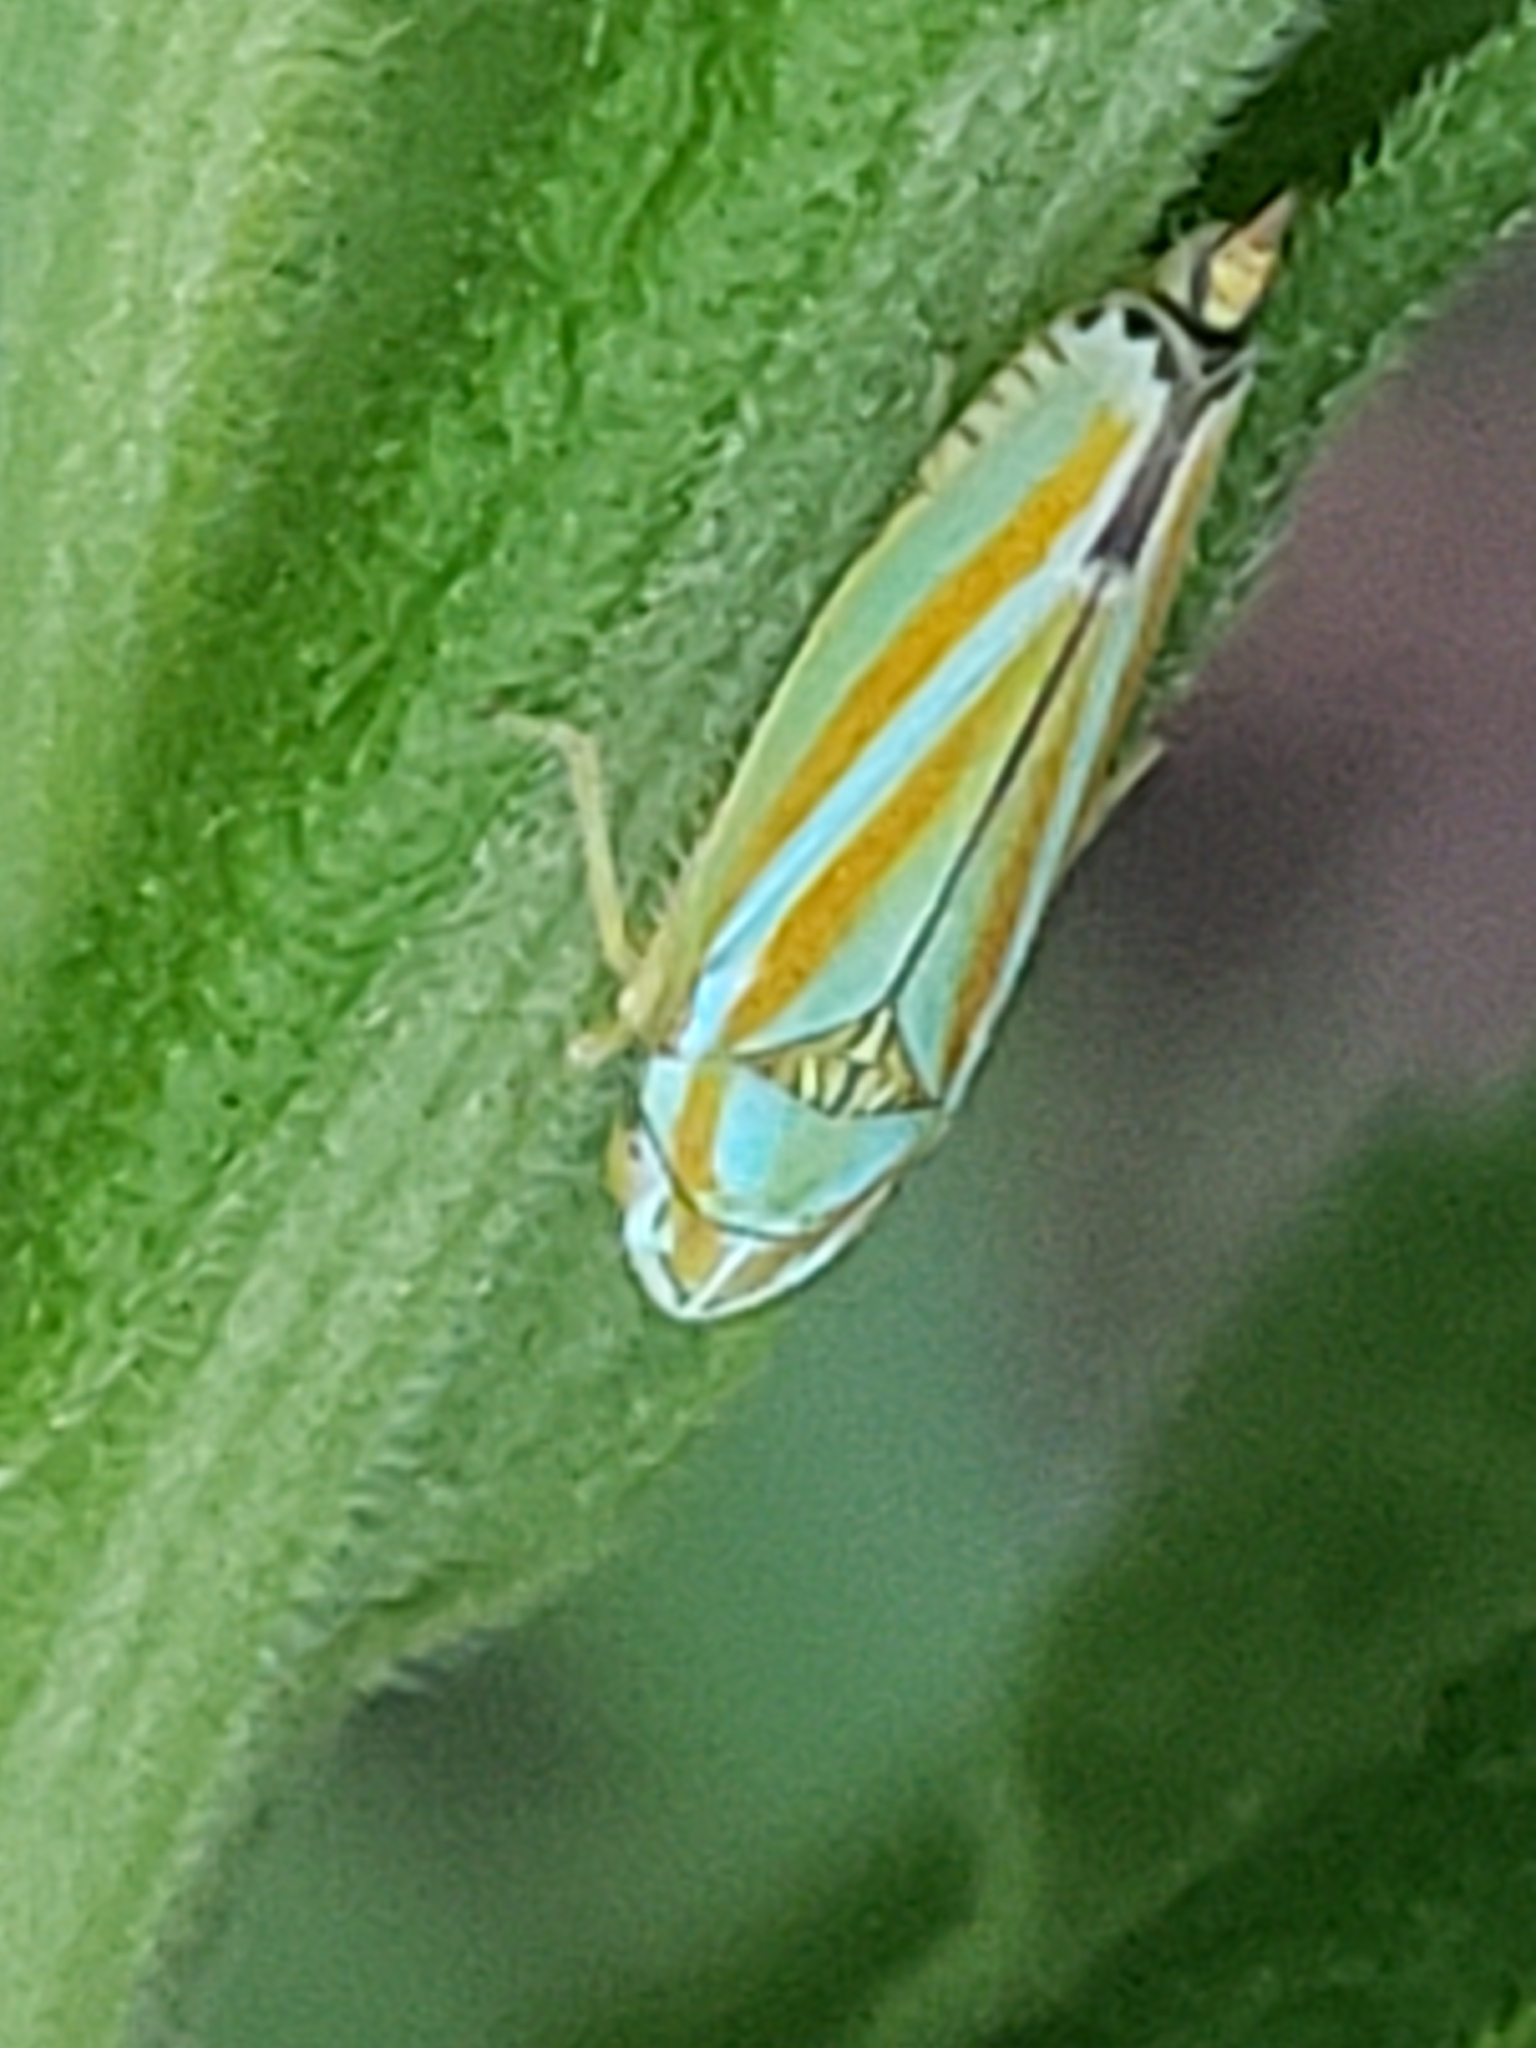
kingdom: Animalia
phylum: Arthropoda
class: Insecta
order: Hemiptera
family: Cicadellidae
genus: Graphocephala
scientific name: Graphocephala versuta
